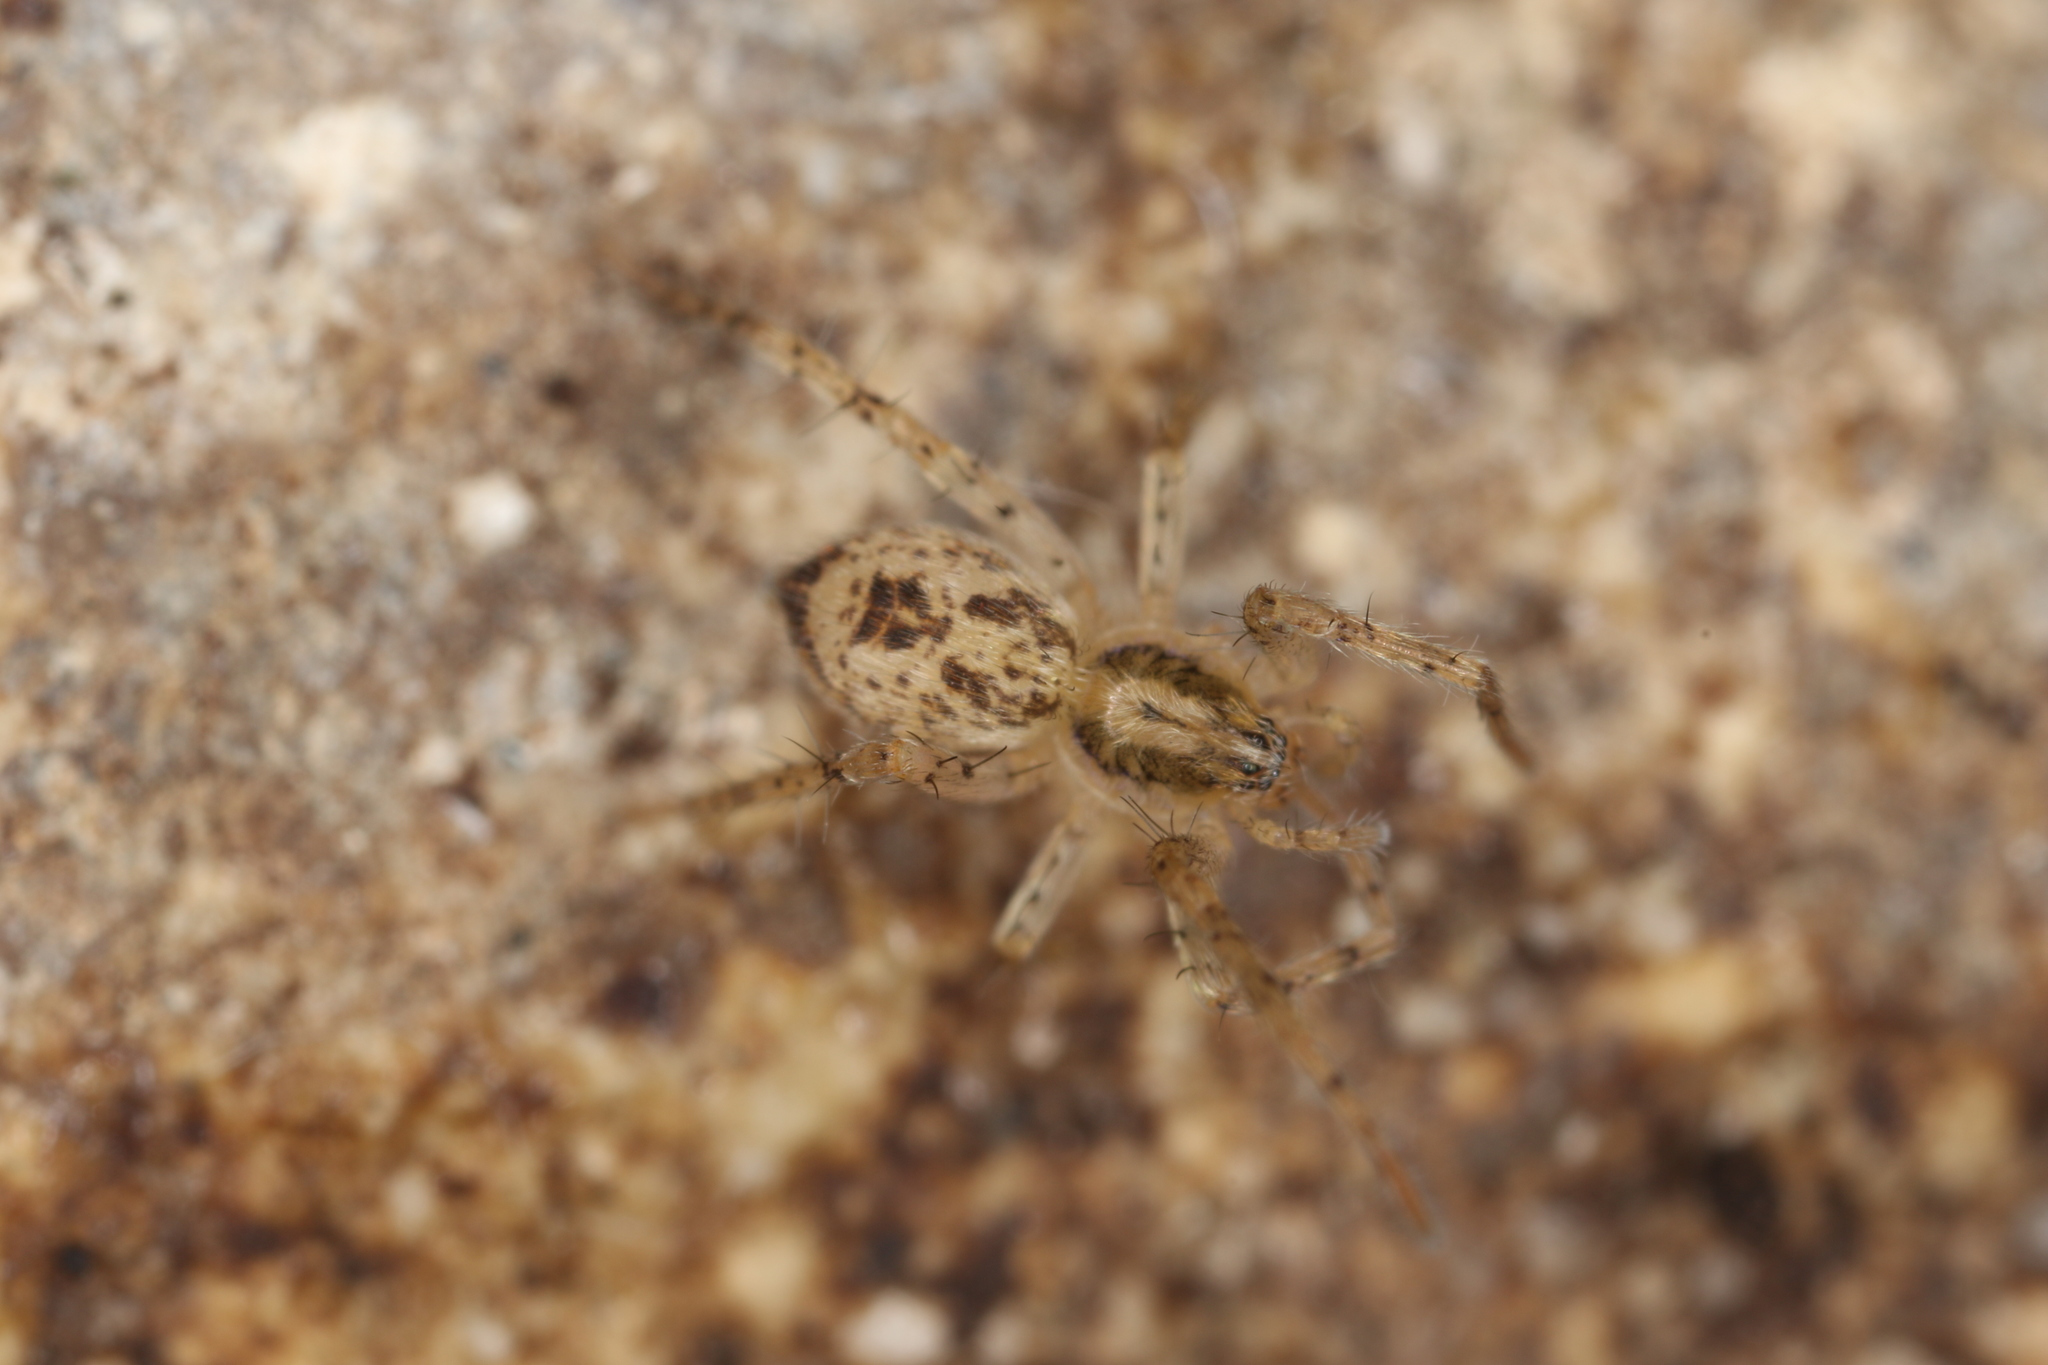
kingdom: Animalia
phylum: Arthropoda
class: Arachnida
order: Araneae
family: Anyphaenidae
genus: Anyphaena
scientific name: Anyphaena accentuata
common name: Buzzing spider
